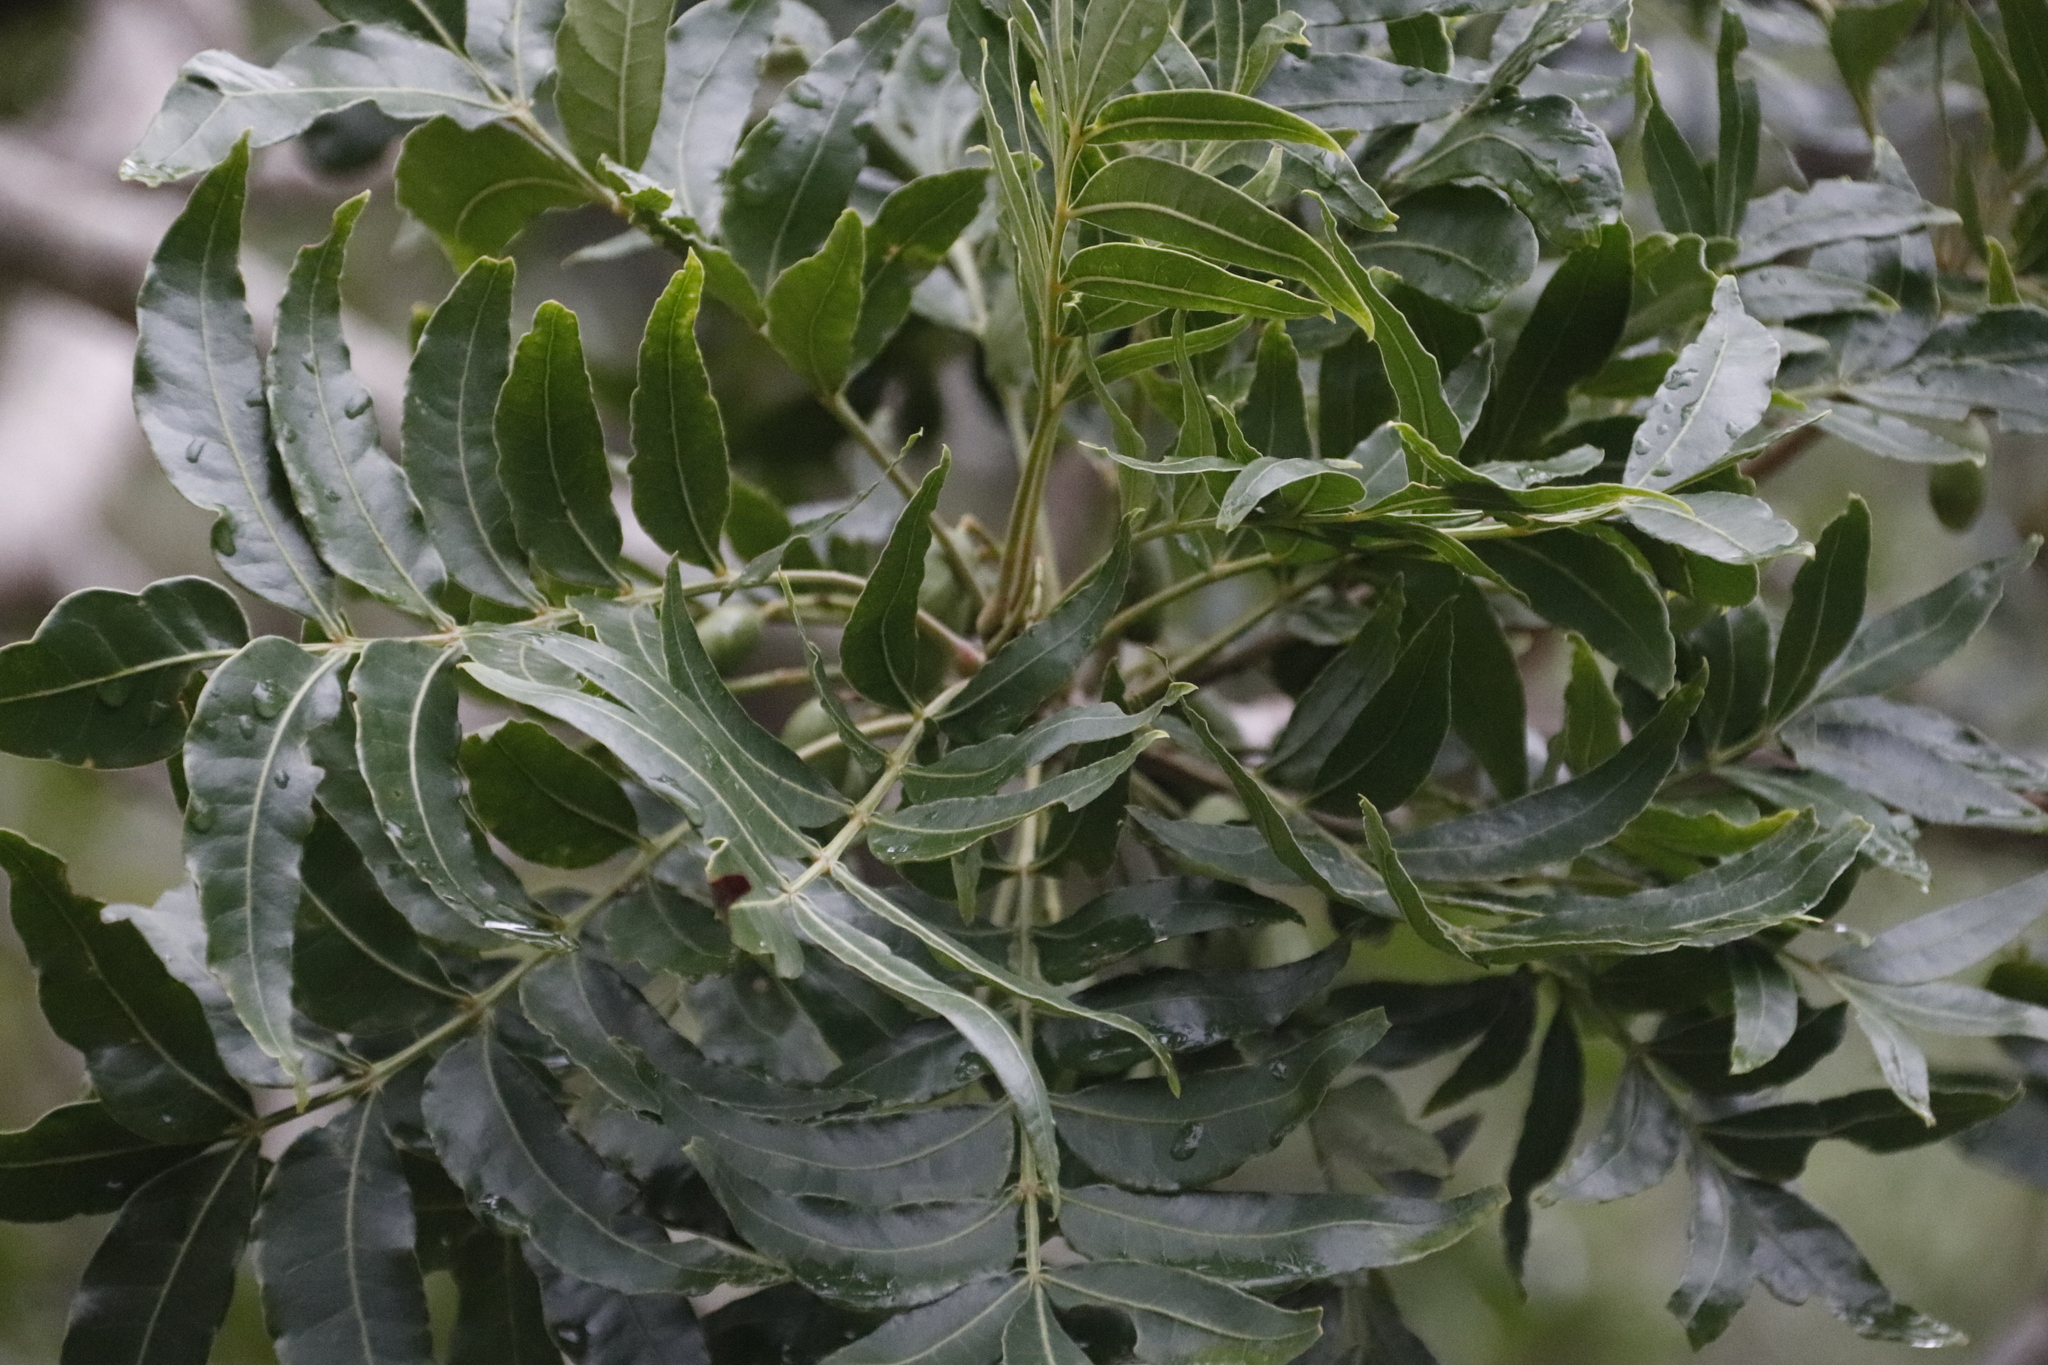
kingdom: Plantae
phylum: Tracheophyta
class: Magnoliopsida
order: Sapindales
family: Anacardiaceae
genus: Harpephyllum
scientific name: Harpephyllum caffrum
